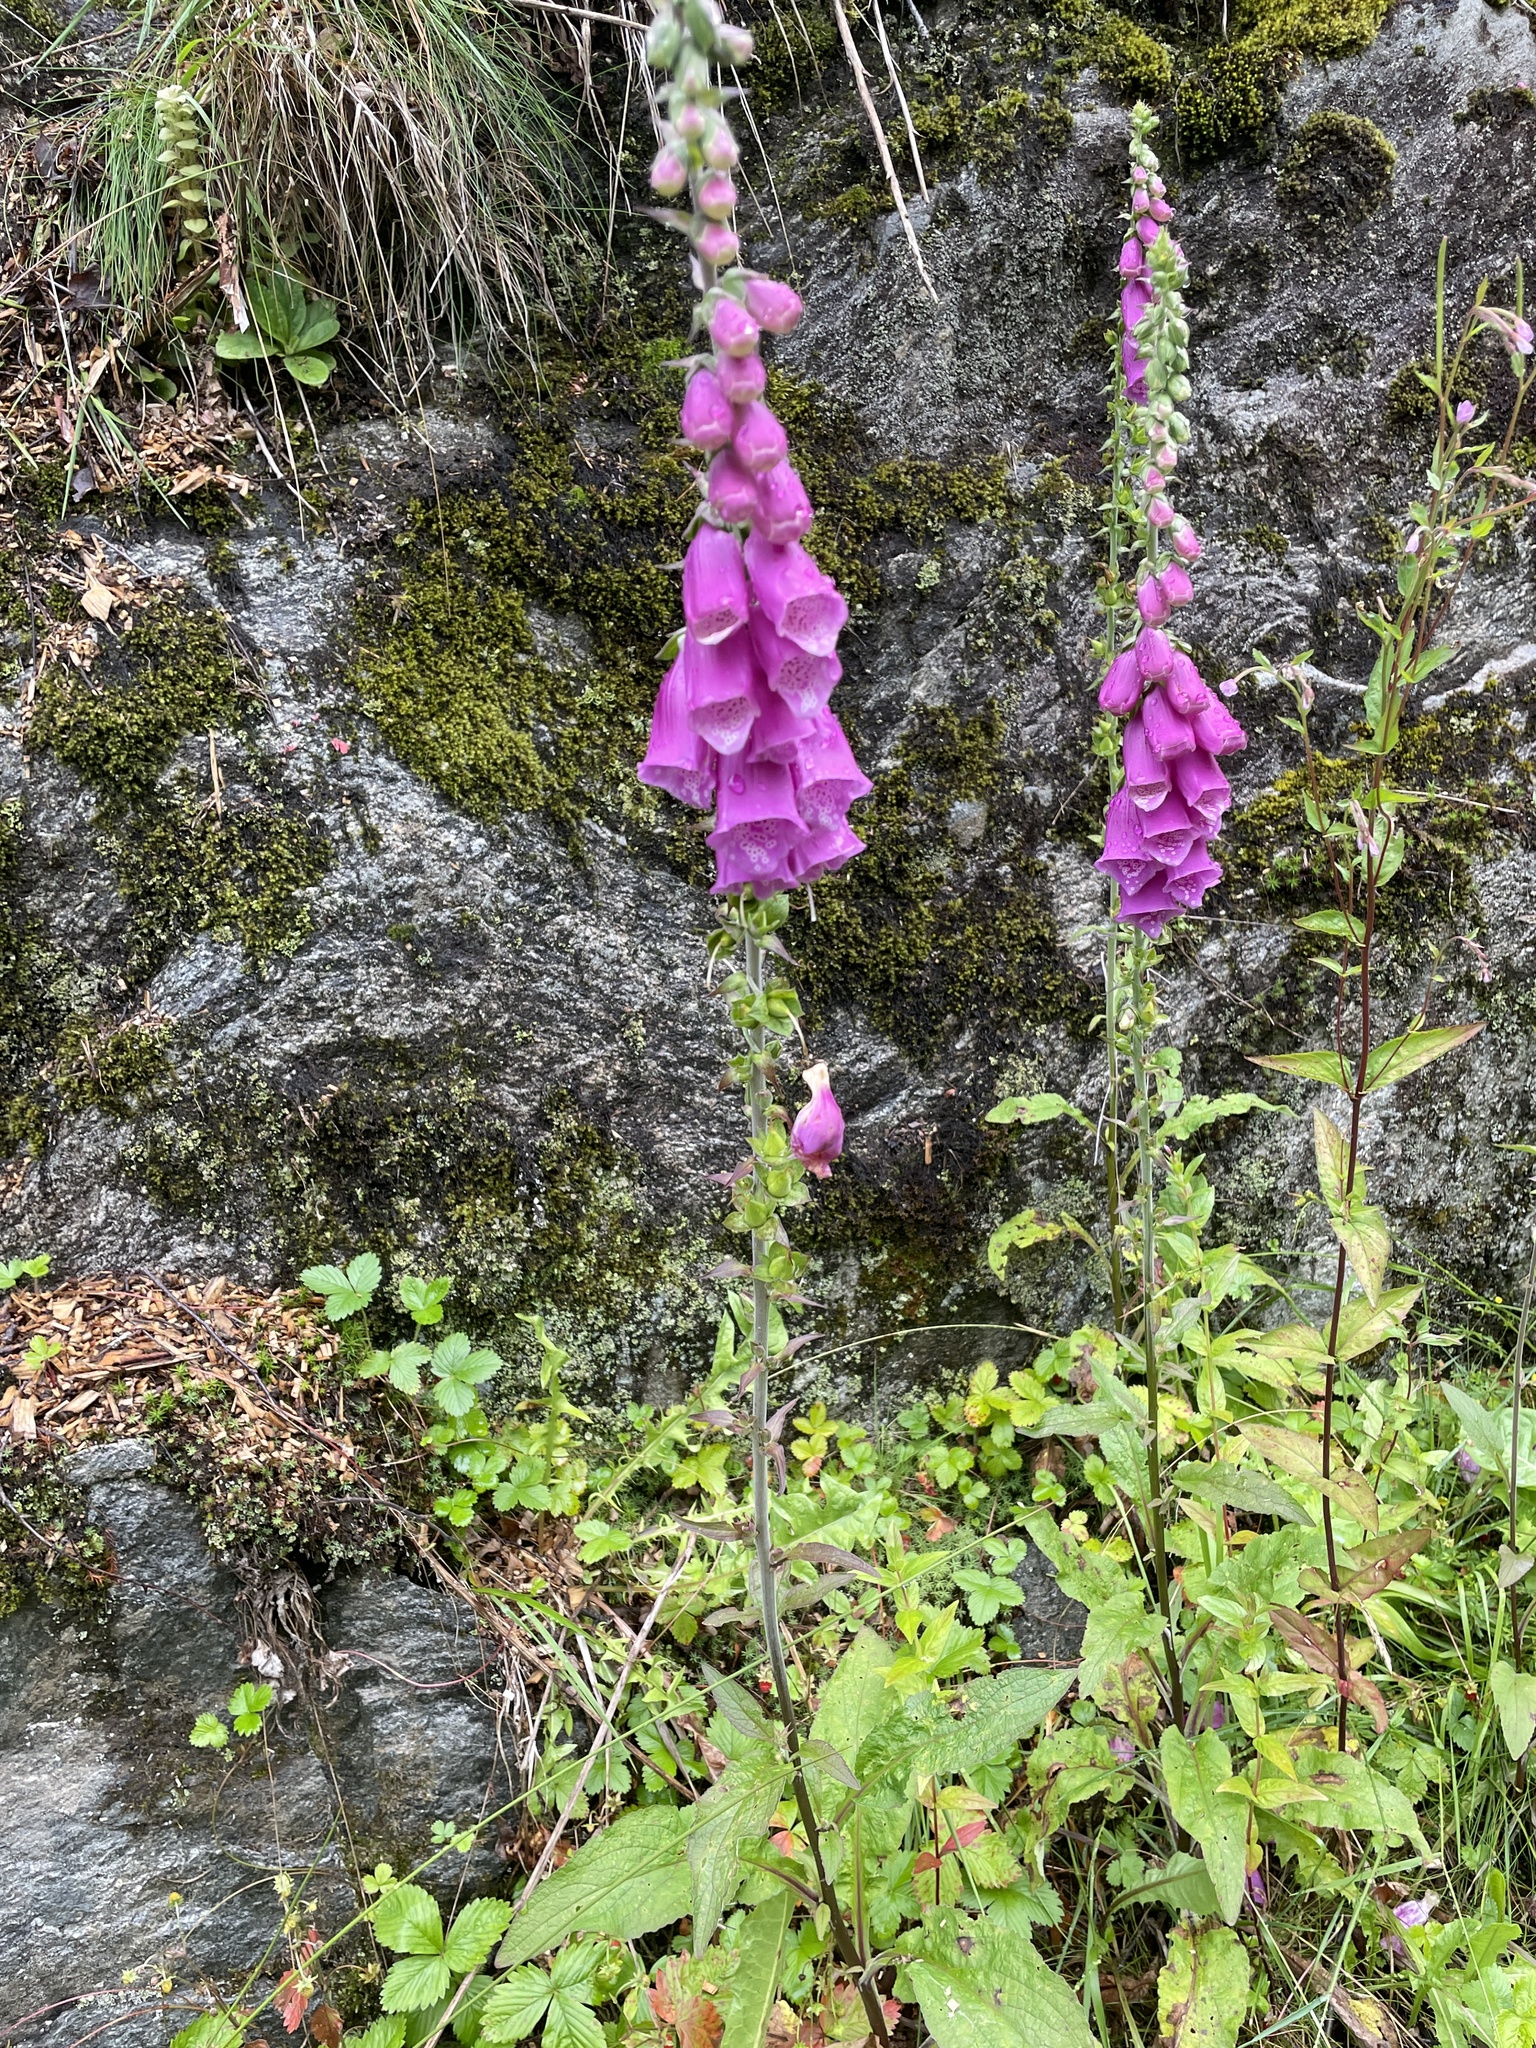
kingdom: Plantae
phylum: Tracheophyta
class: Magnoliopsida
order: Lamiales
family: Plantaginaceae
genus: Digitalis
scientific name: Digitalis purpurea
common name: Foxglove
